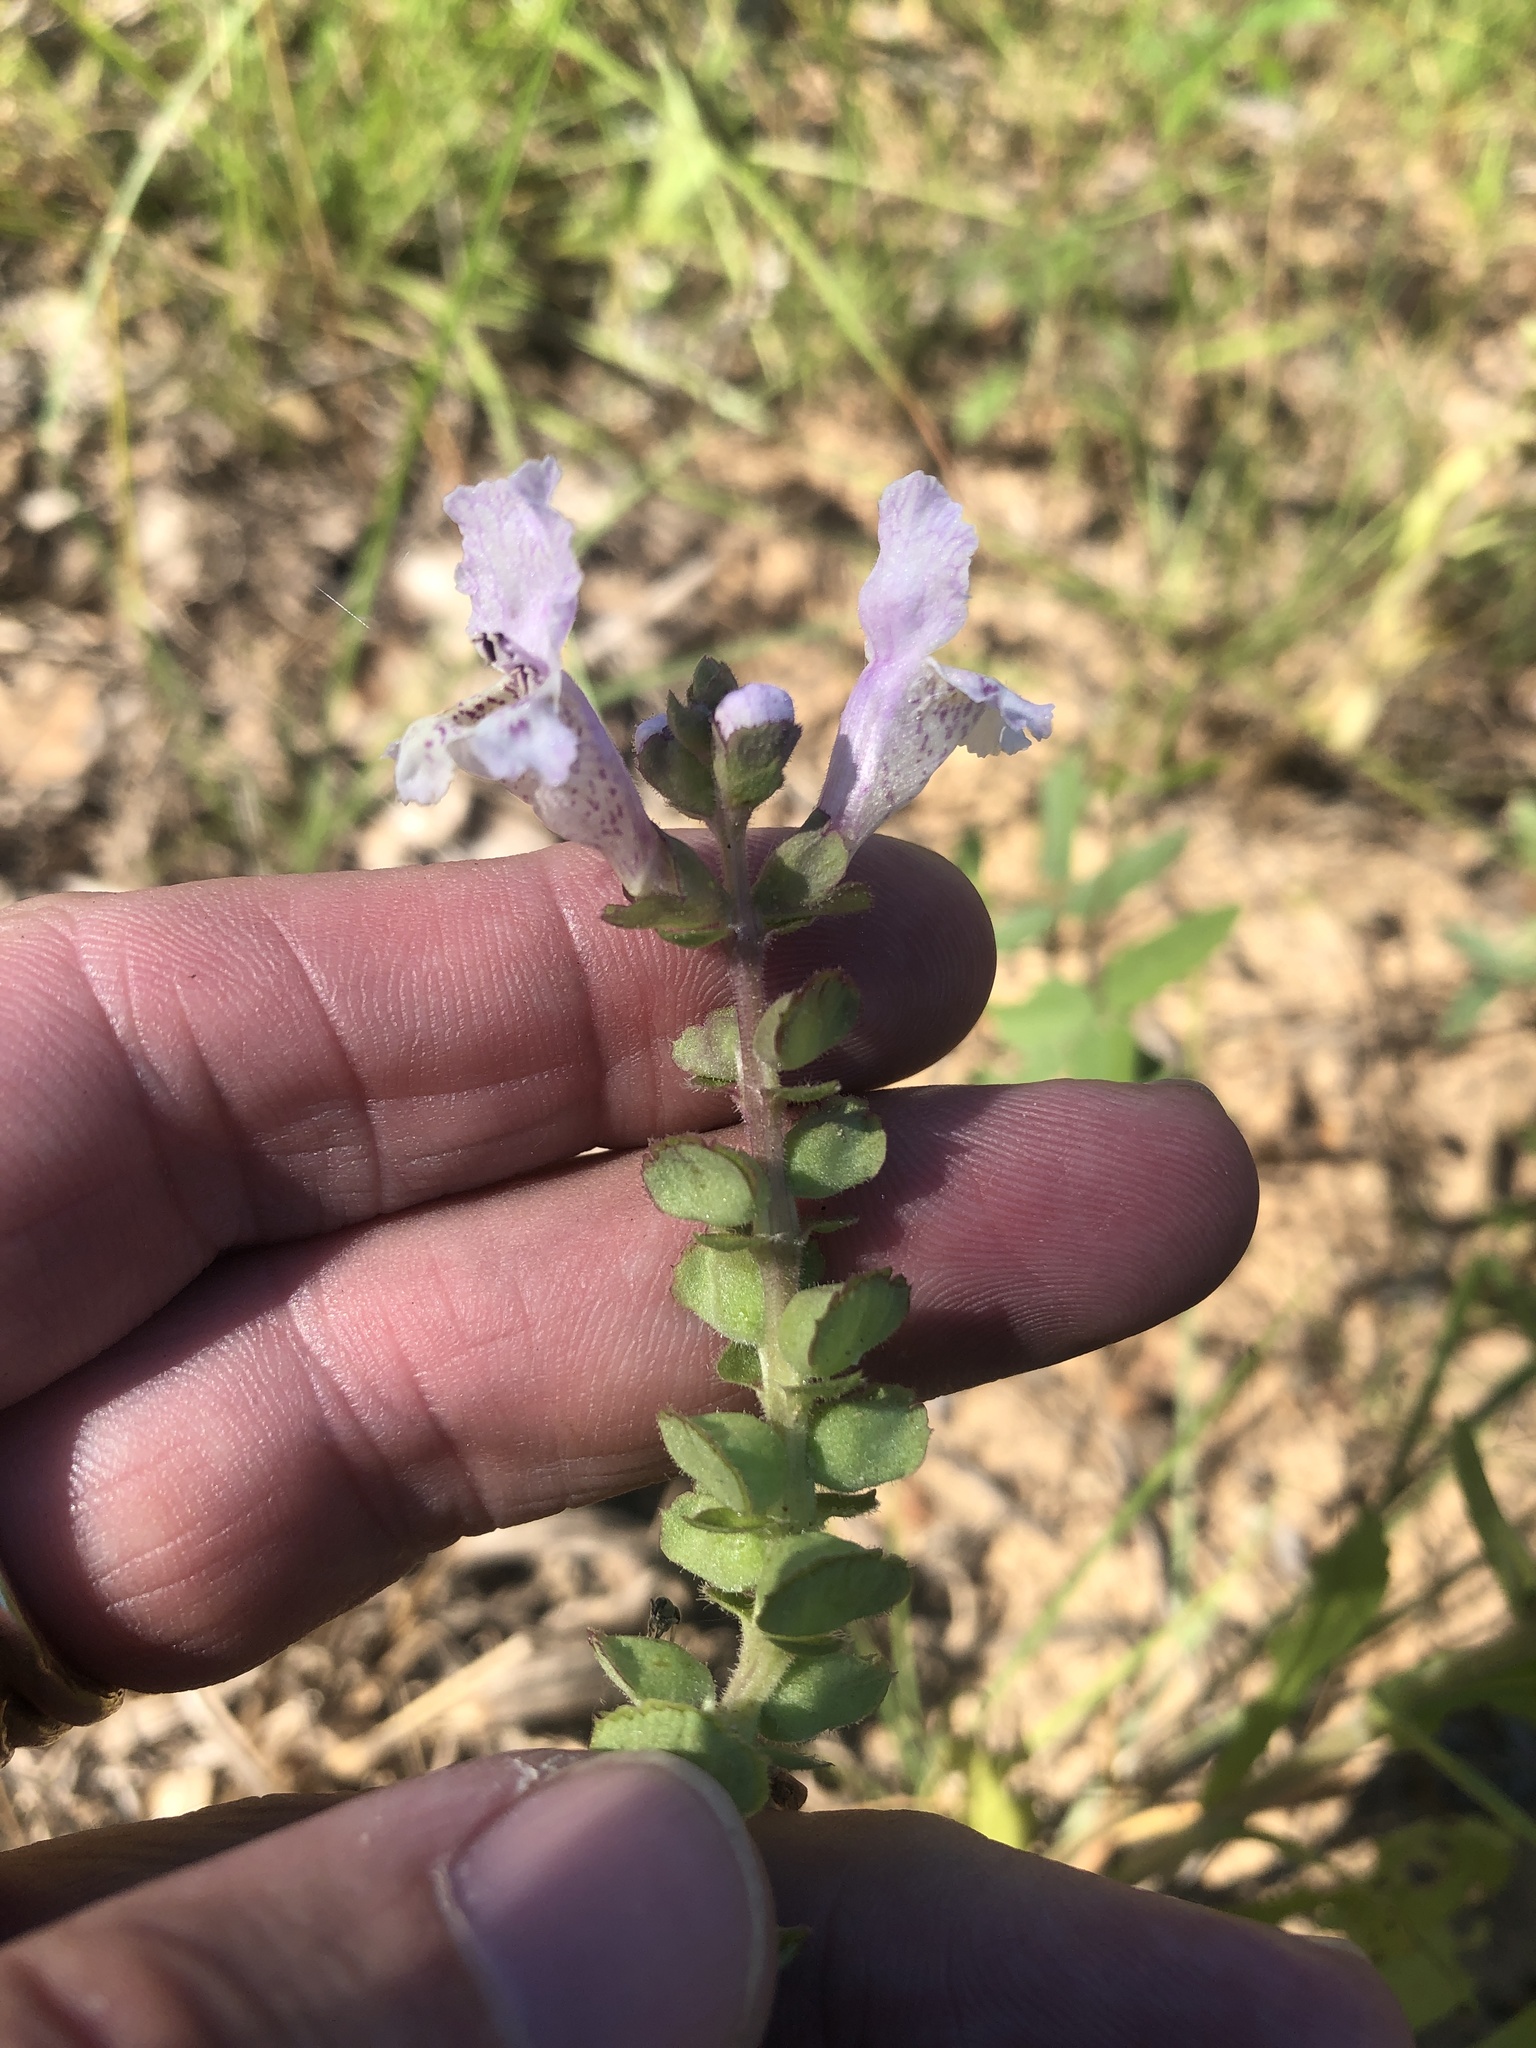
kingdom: Plantae
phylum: Tracheophyta
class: Magnoliopsida
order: Lamiales
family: Lamiaceae
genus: Brazoria
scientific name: Brazoria truncata
